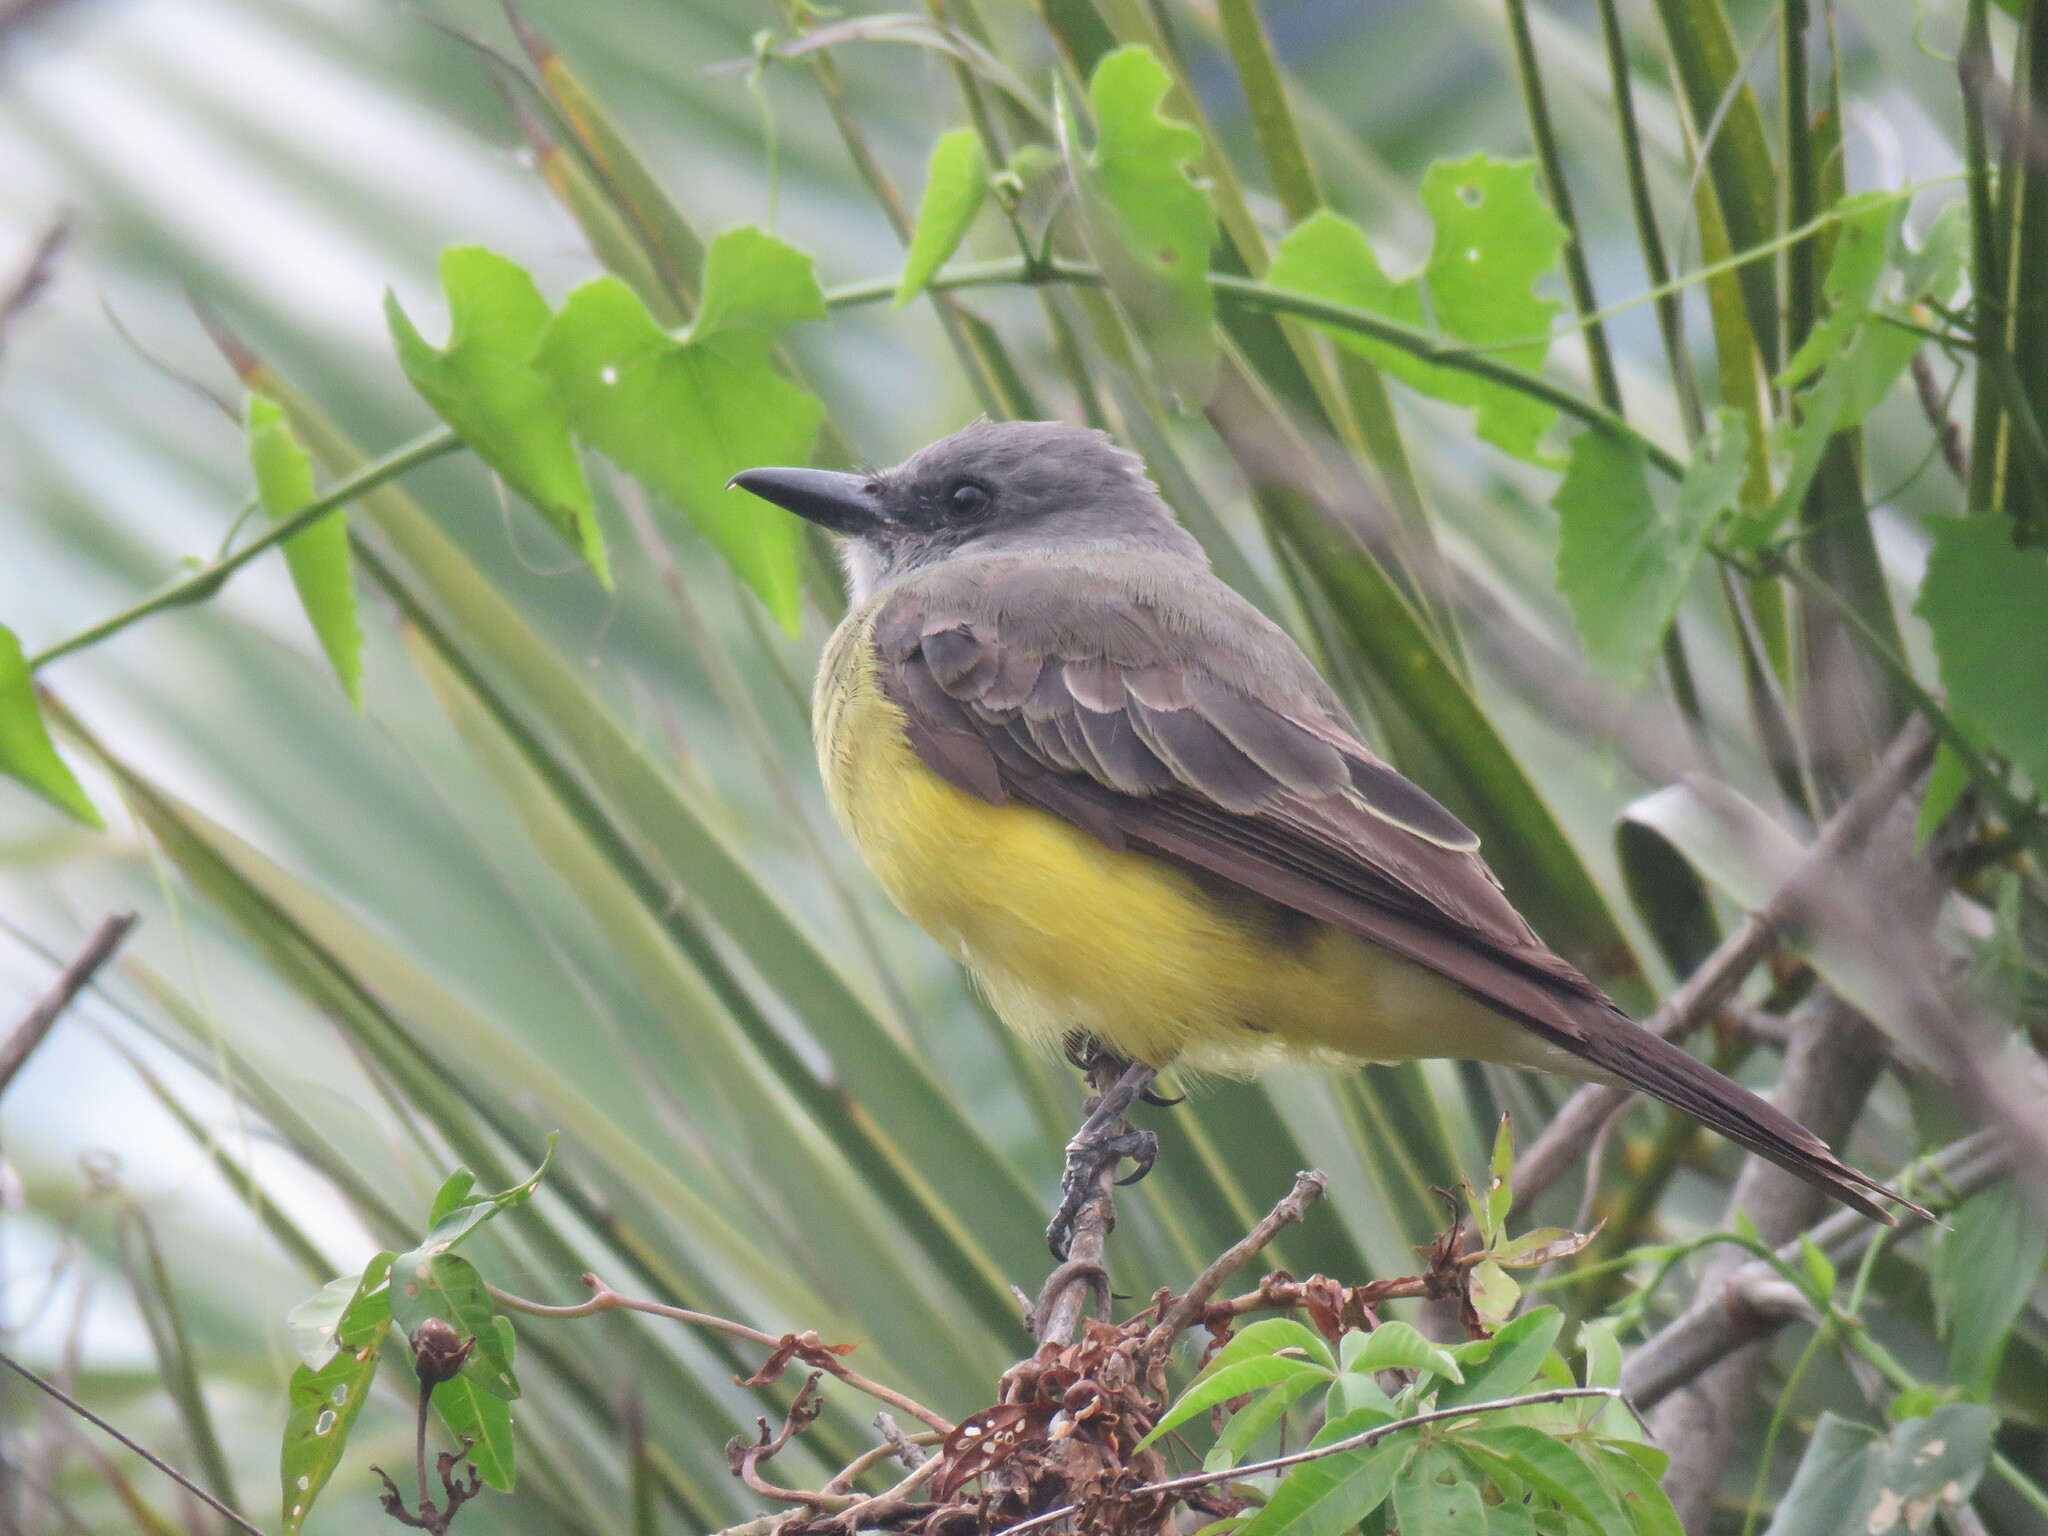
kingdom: Animalia
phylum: Chordata
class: Aves
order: Passeriformes
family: Tyrannidae
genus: Tyrannus
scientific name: Tyrannus melancholicus
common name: Tropical kingbird
